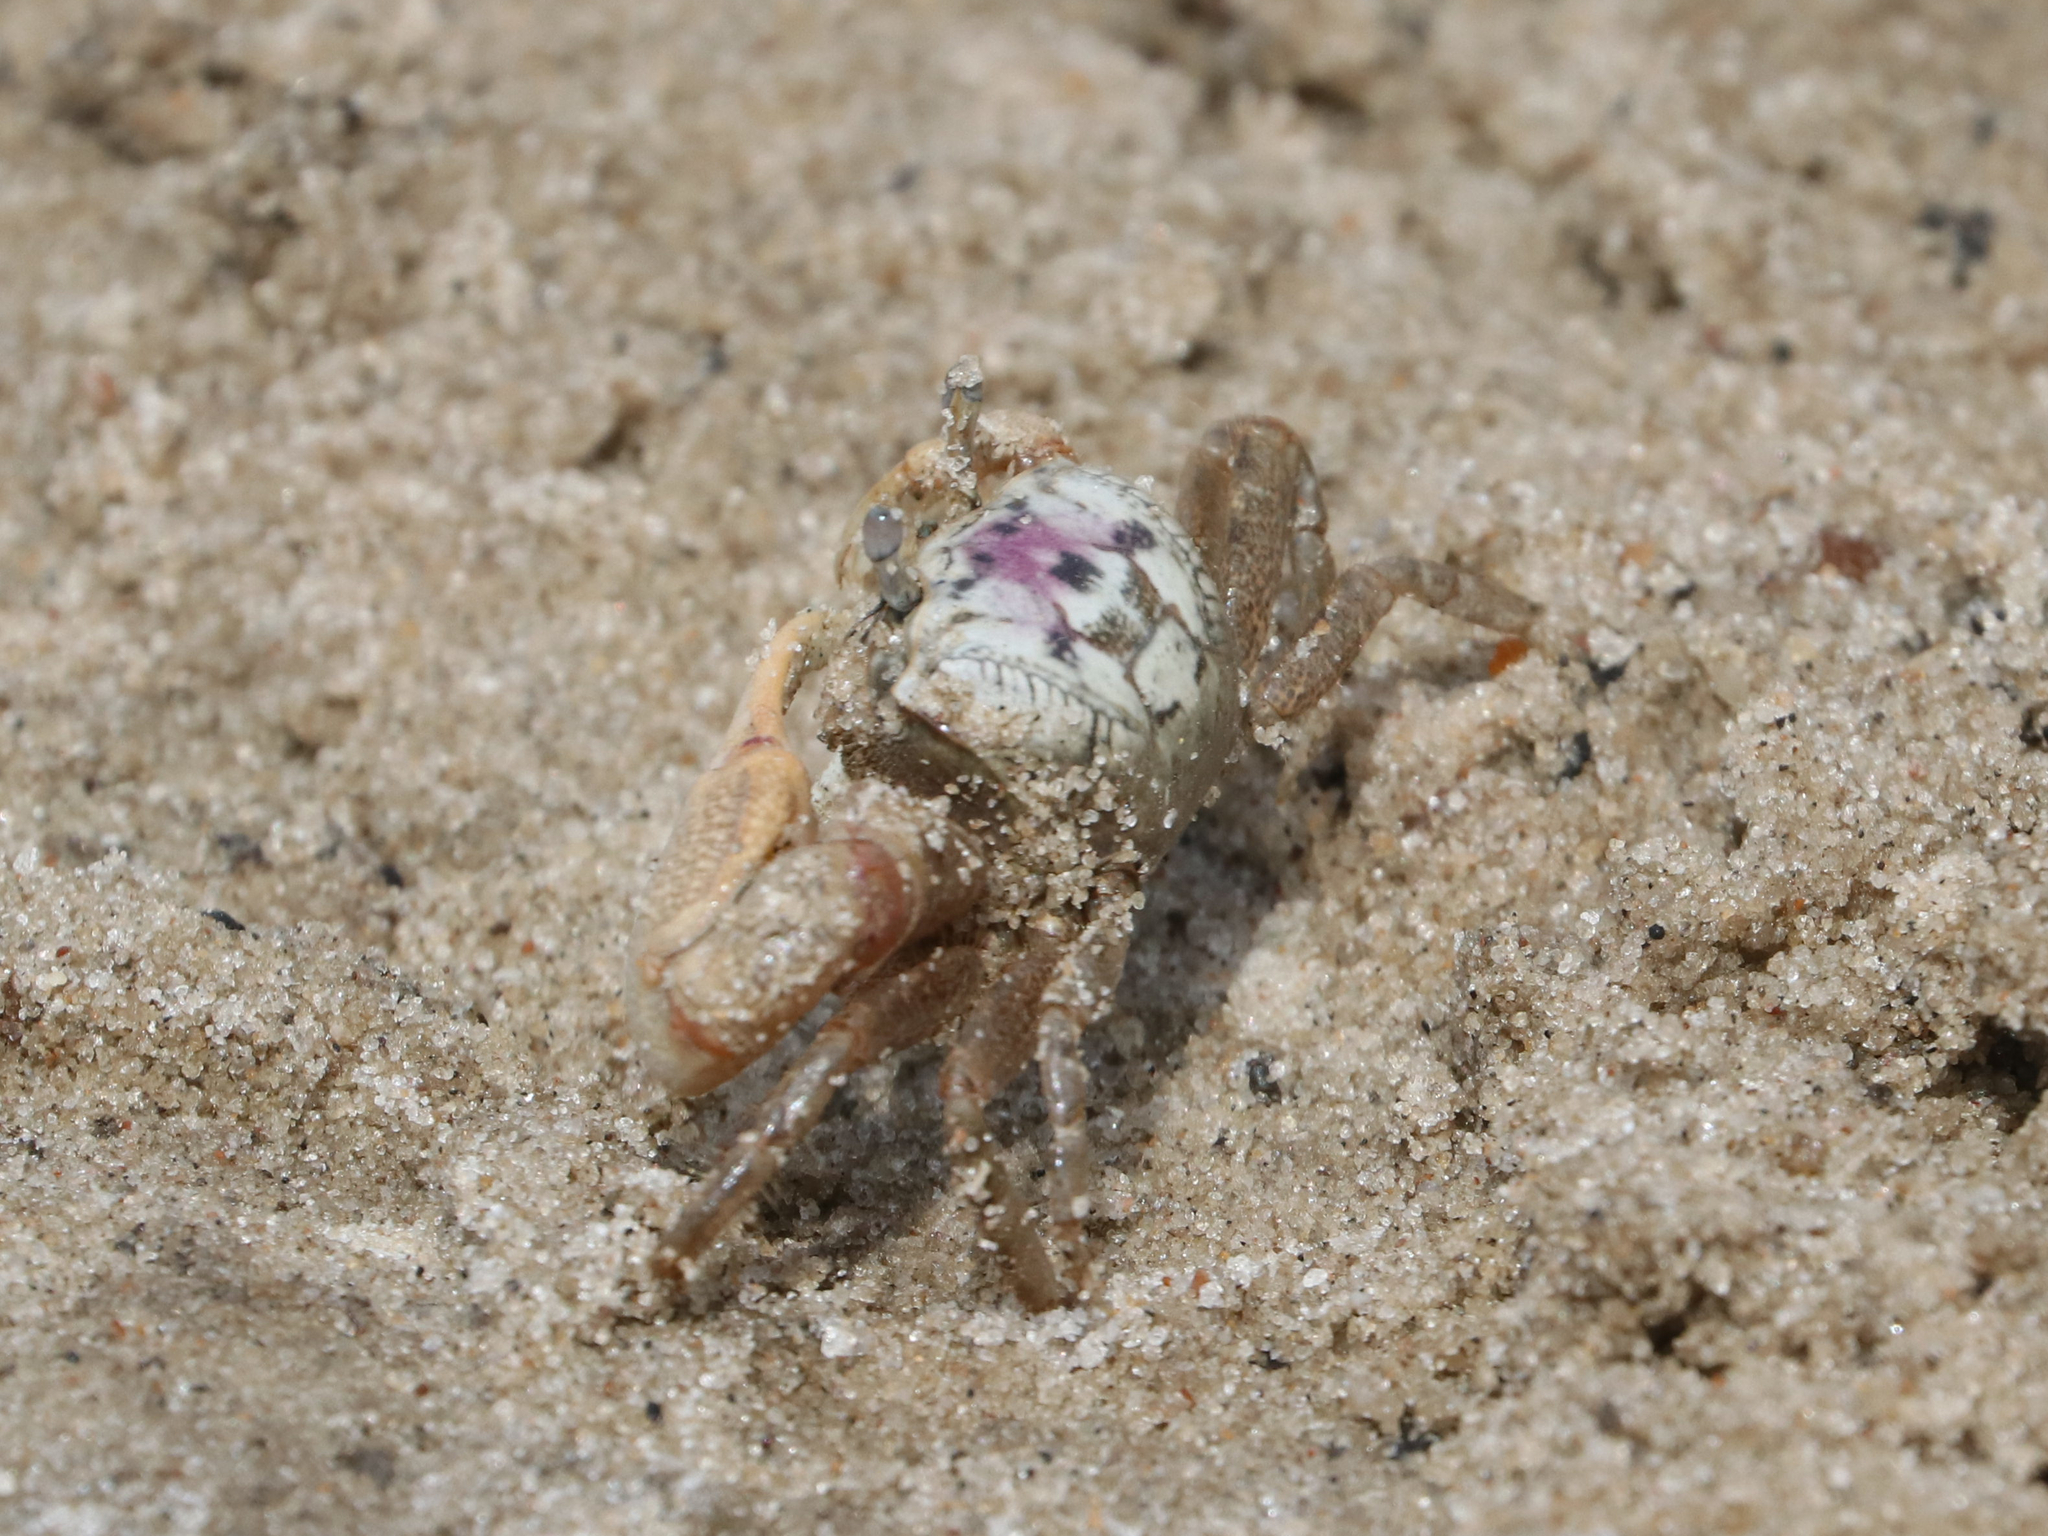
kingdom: Animalia
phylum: Arthropoda
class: Malacostraca
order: Decapoda
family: Ocypodidae
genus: Leptuca
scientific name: Leptuca pugilator
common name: Atlantic sand fiddler crab
